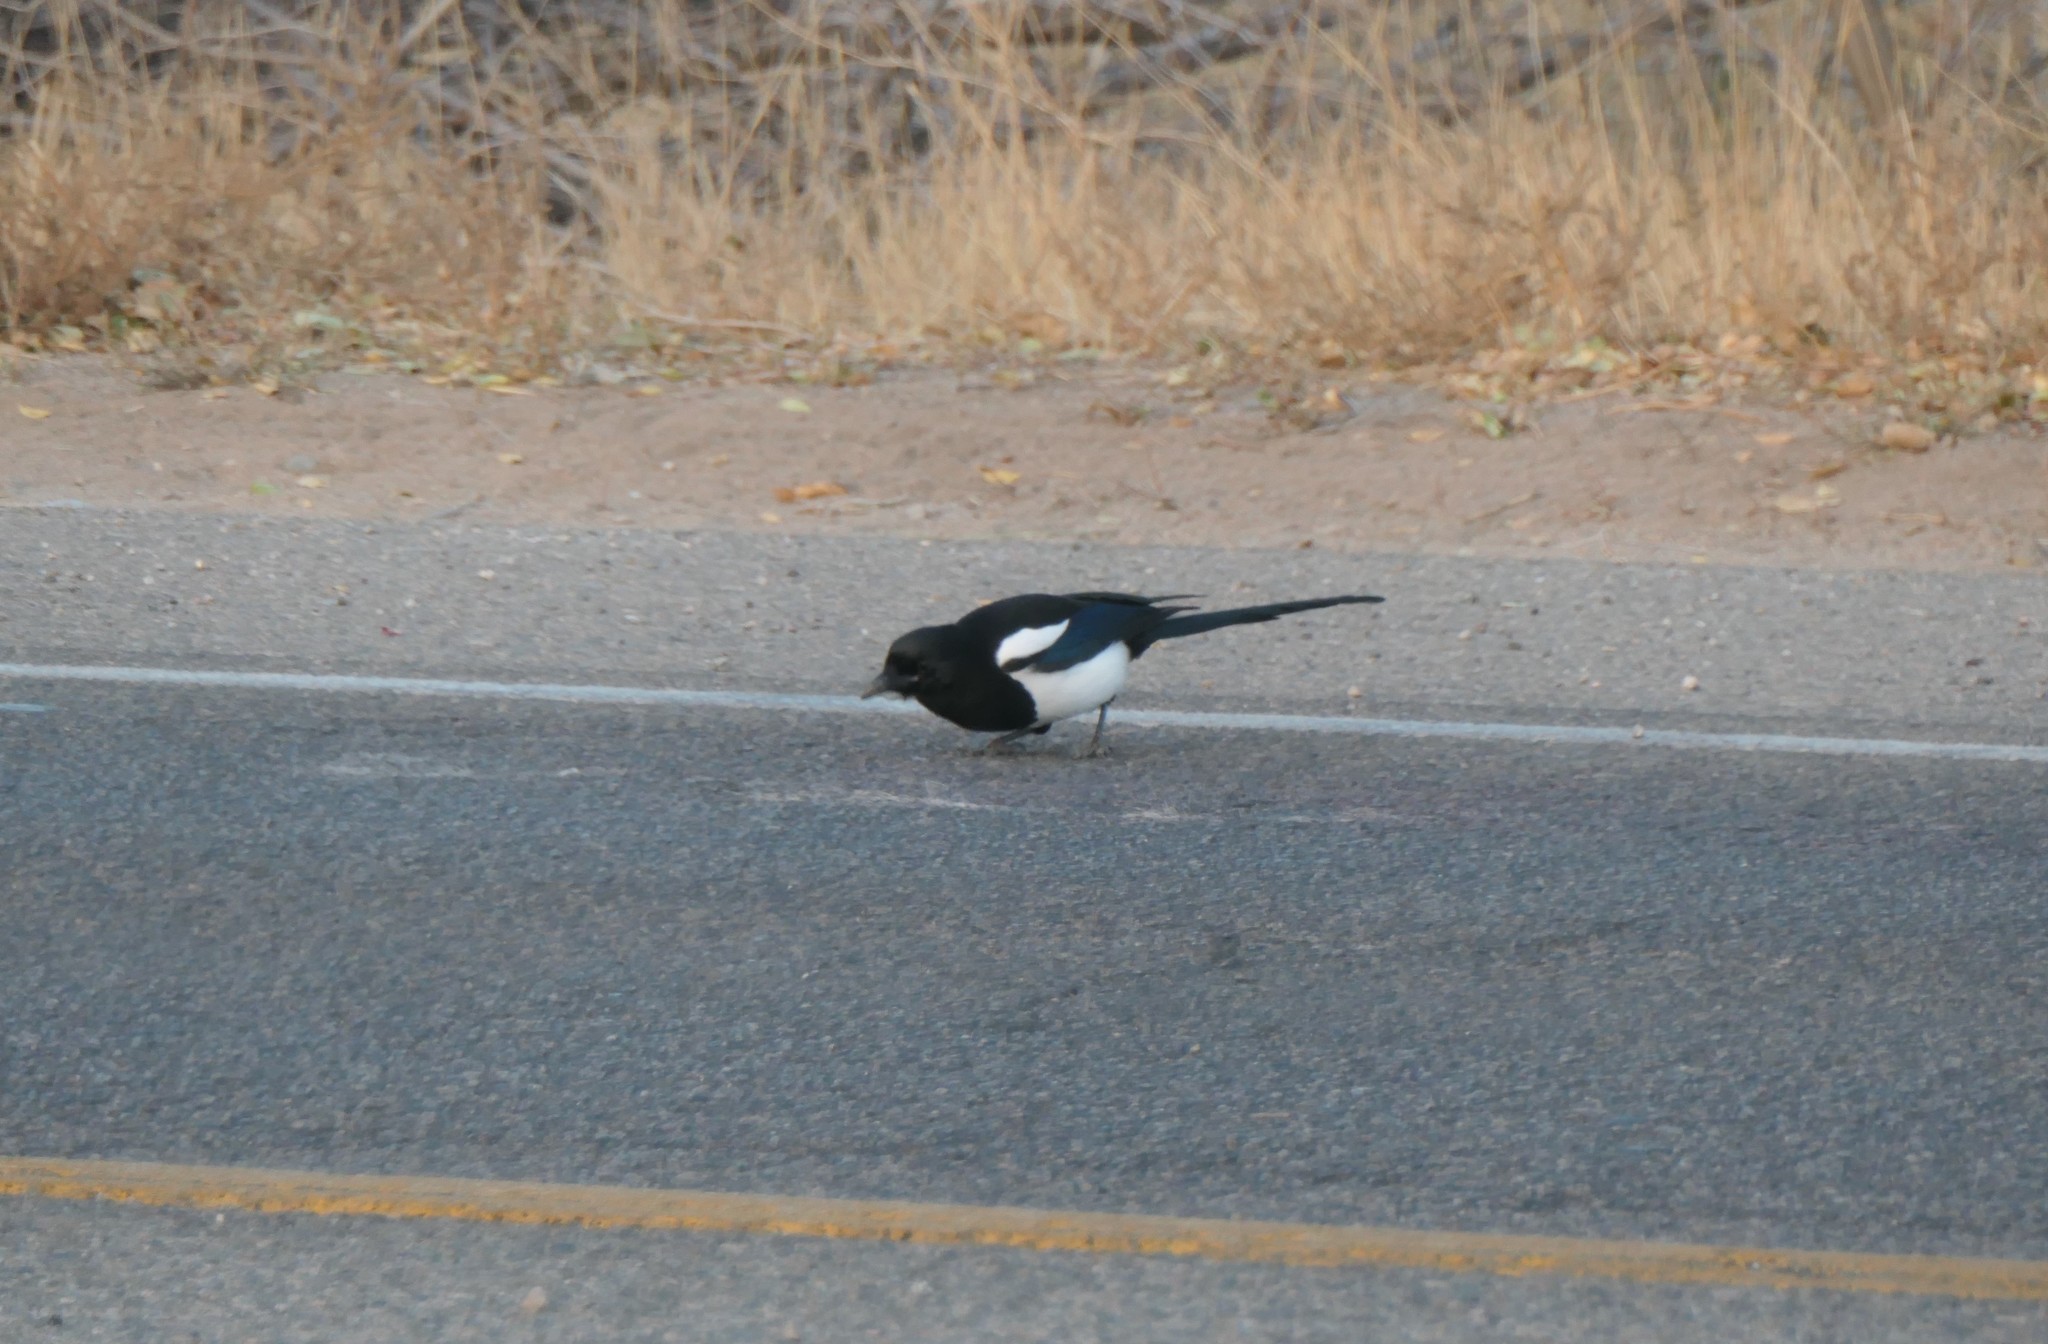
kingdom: Animalia
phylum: Chordata
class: Aves
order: Passeriformes
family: Corvidae
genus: Pica
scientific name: Pica hudsonia
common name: Black-billed magpie
